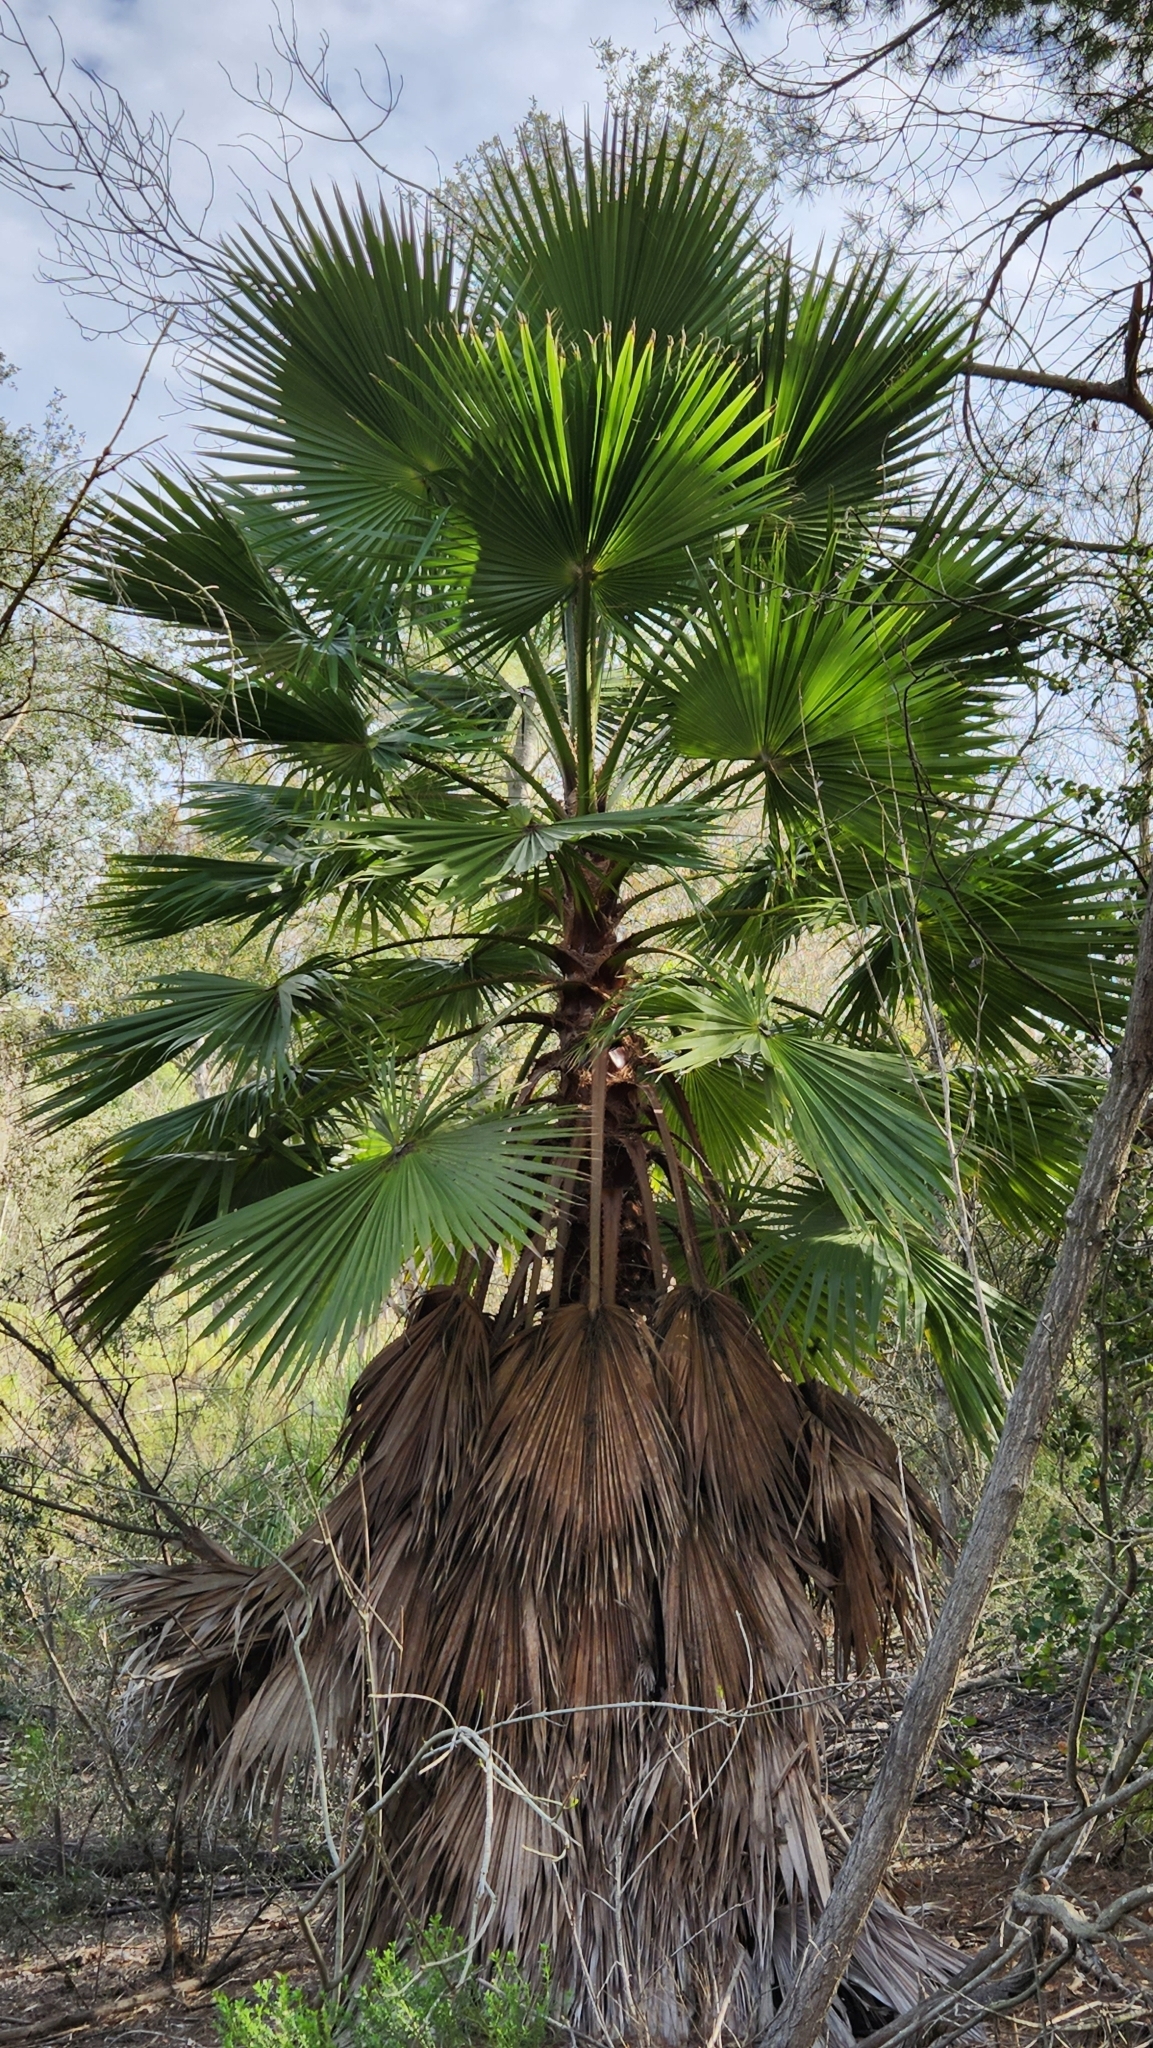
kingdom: Plantae
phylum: Tracheophyta
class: Liliopsida
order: Arecales
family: Arecaceae
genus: Washingtonia
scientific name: Washingtonia robusta
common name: Mexican fan palm
